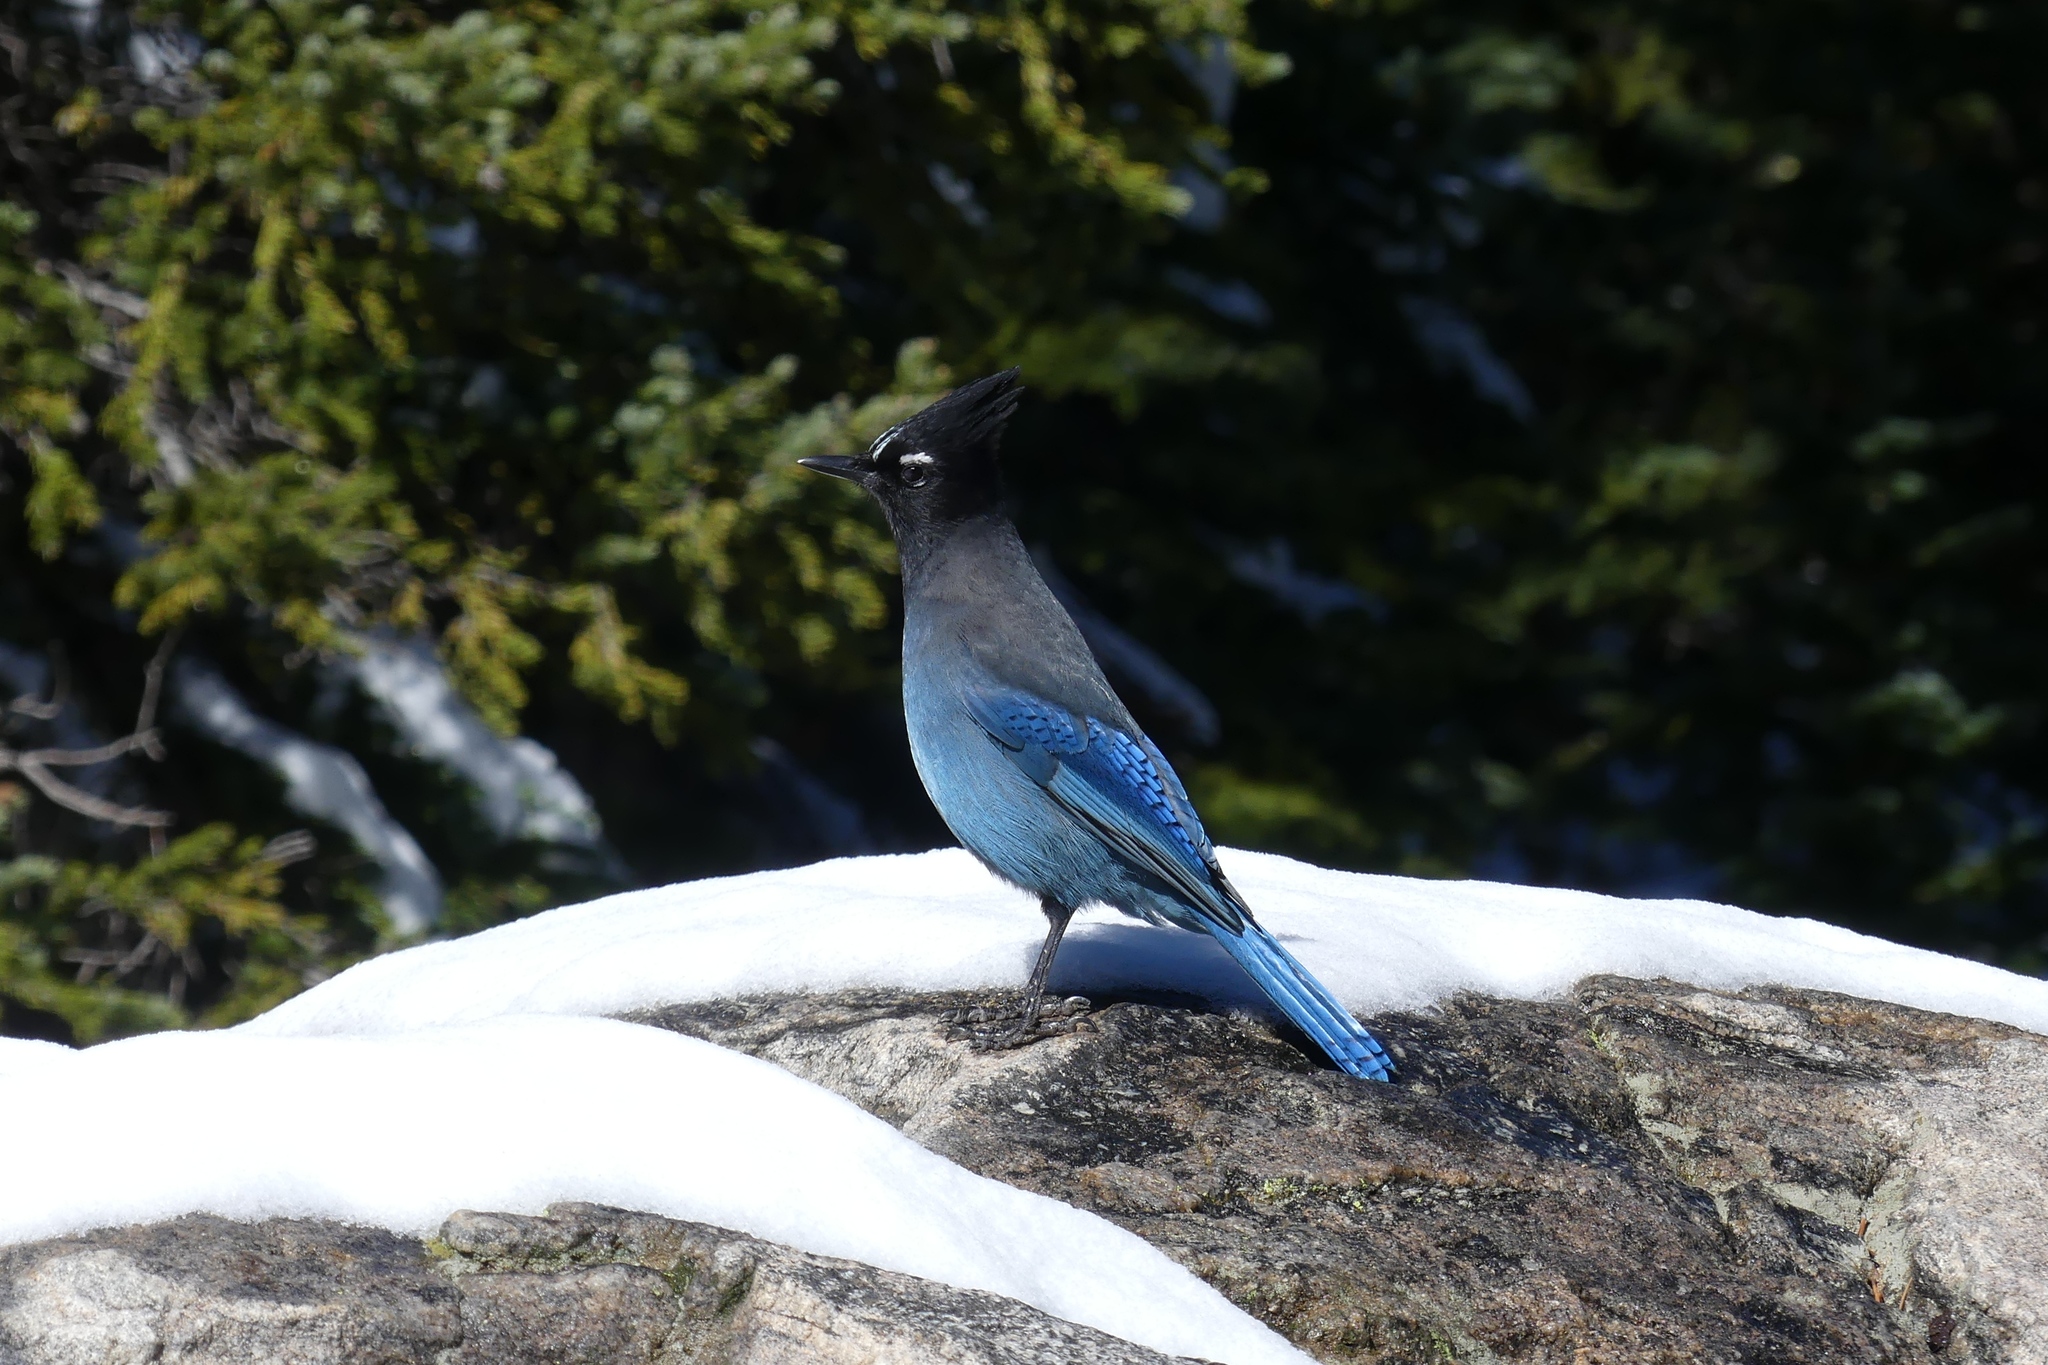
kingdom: Animalia
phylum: Chordata
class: Aves
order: Passeriformes
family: Corvidae
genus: Cyanocitta
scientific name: Cyanocitta stelleri
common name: Steller's jay
